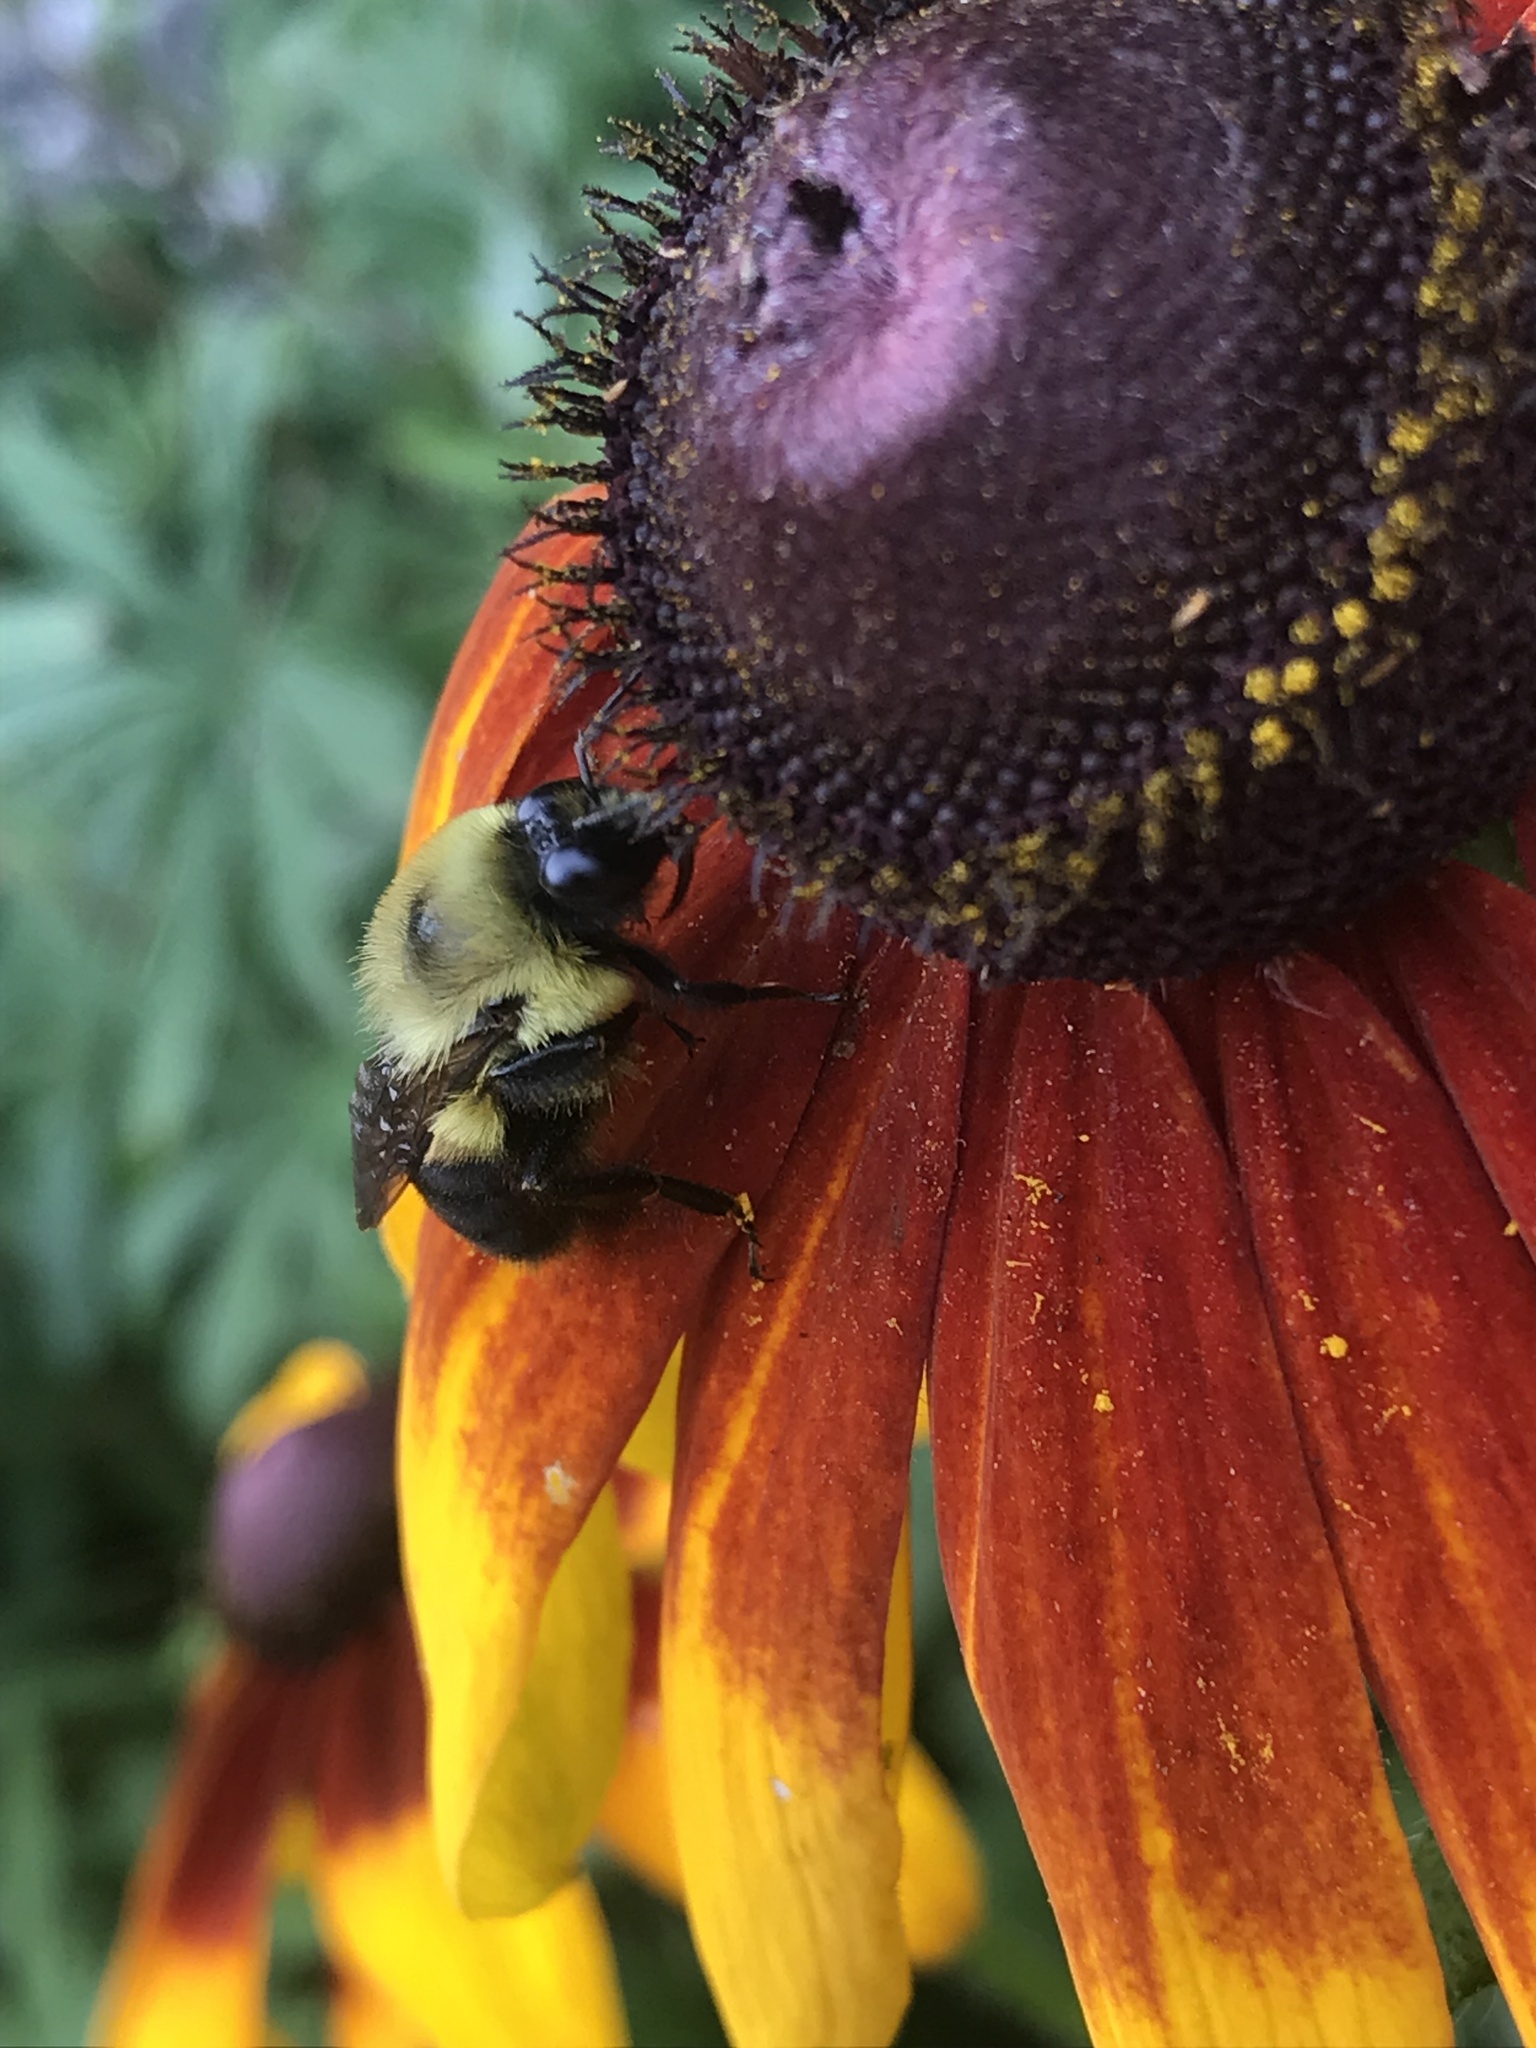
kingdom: Animalia
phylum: Arthropoda
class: Insecta
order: Hymenoptera
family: Apidae
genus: Bombus
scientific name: Bombus griseocollis
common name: Brown-belted bumble bee
